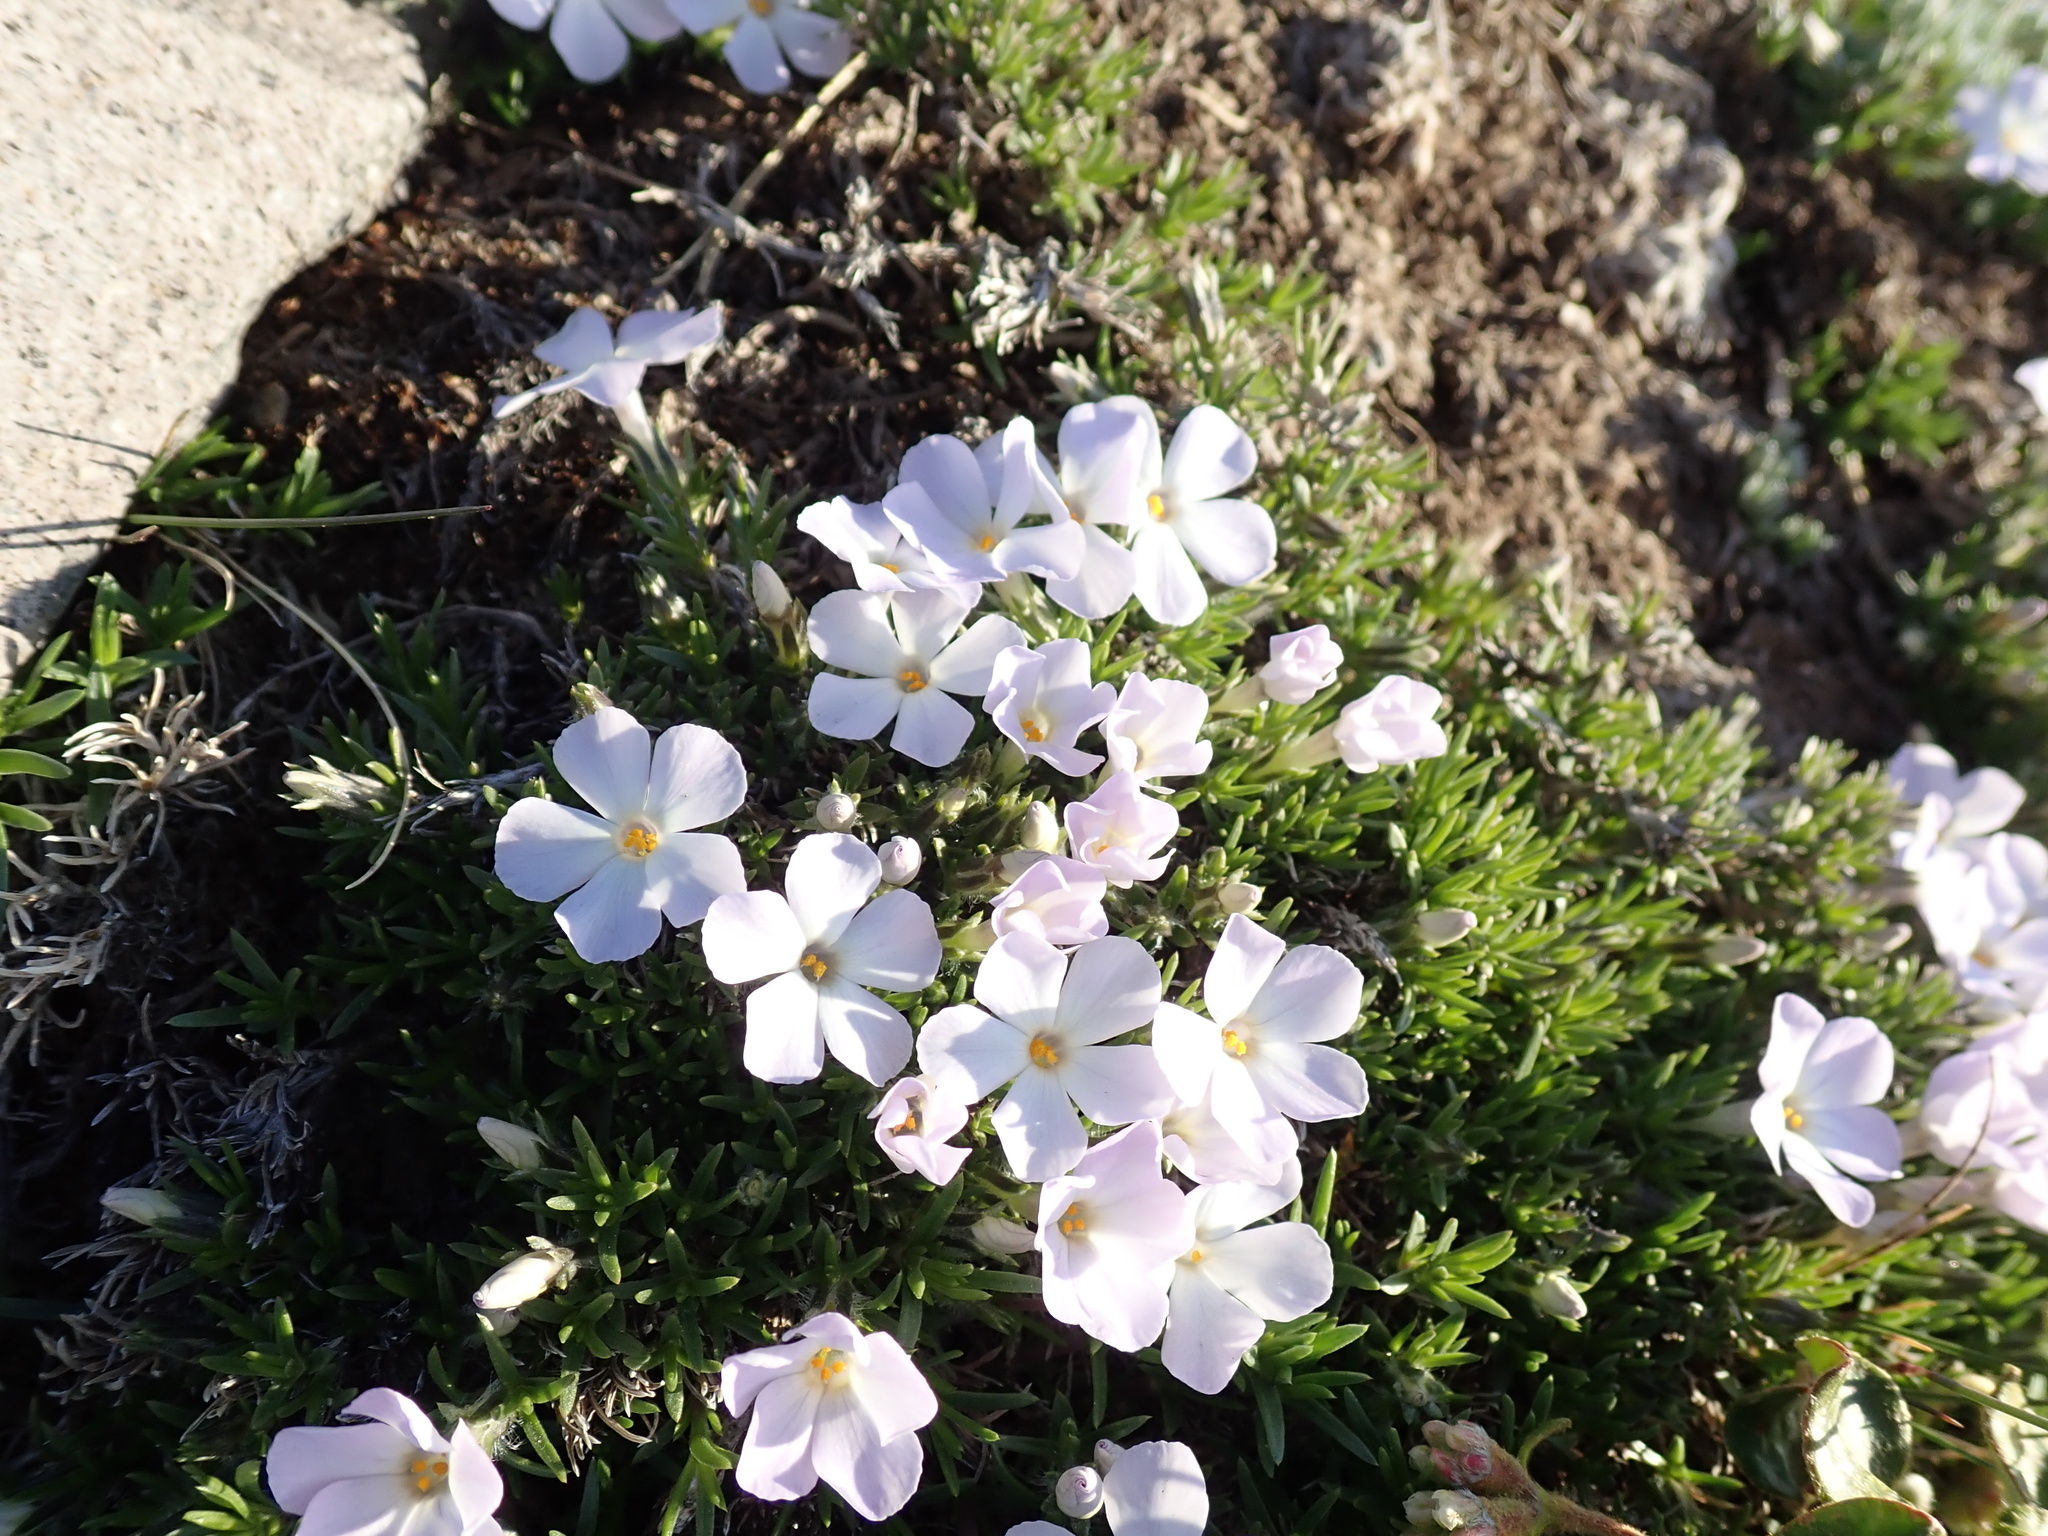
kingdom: Plantae
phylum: Tracheophyta
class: Magnoliopsida
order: Ericales
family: Polemoniaceae
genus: Phlox
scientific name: Phlox diffusa
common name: Mat phlox
